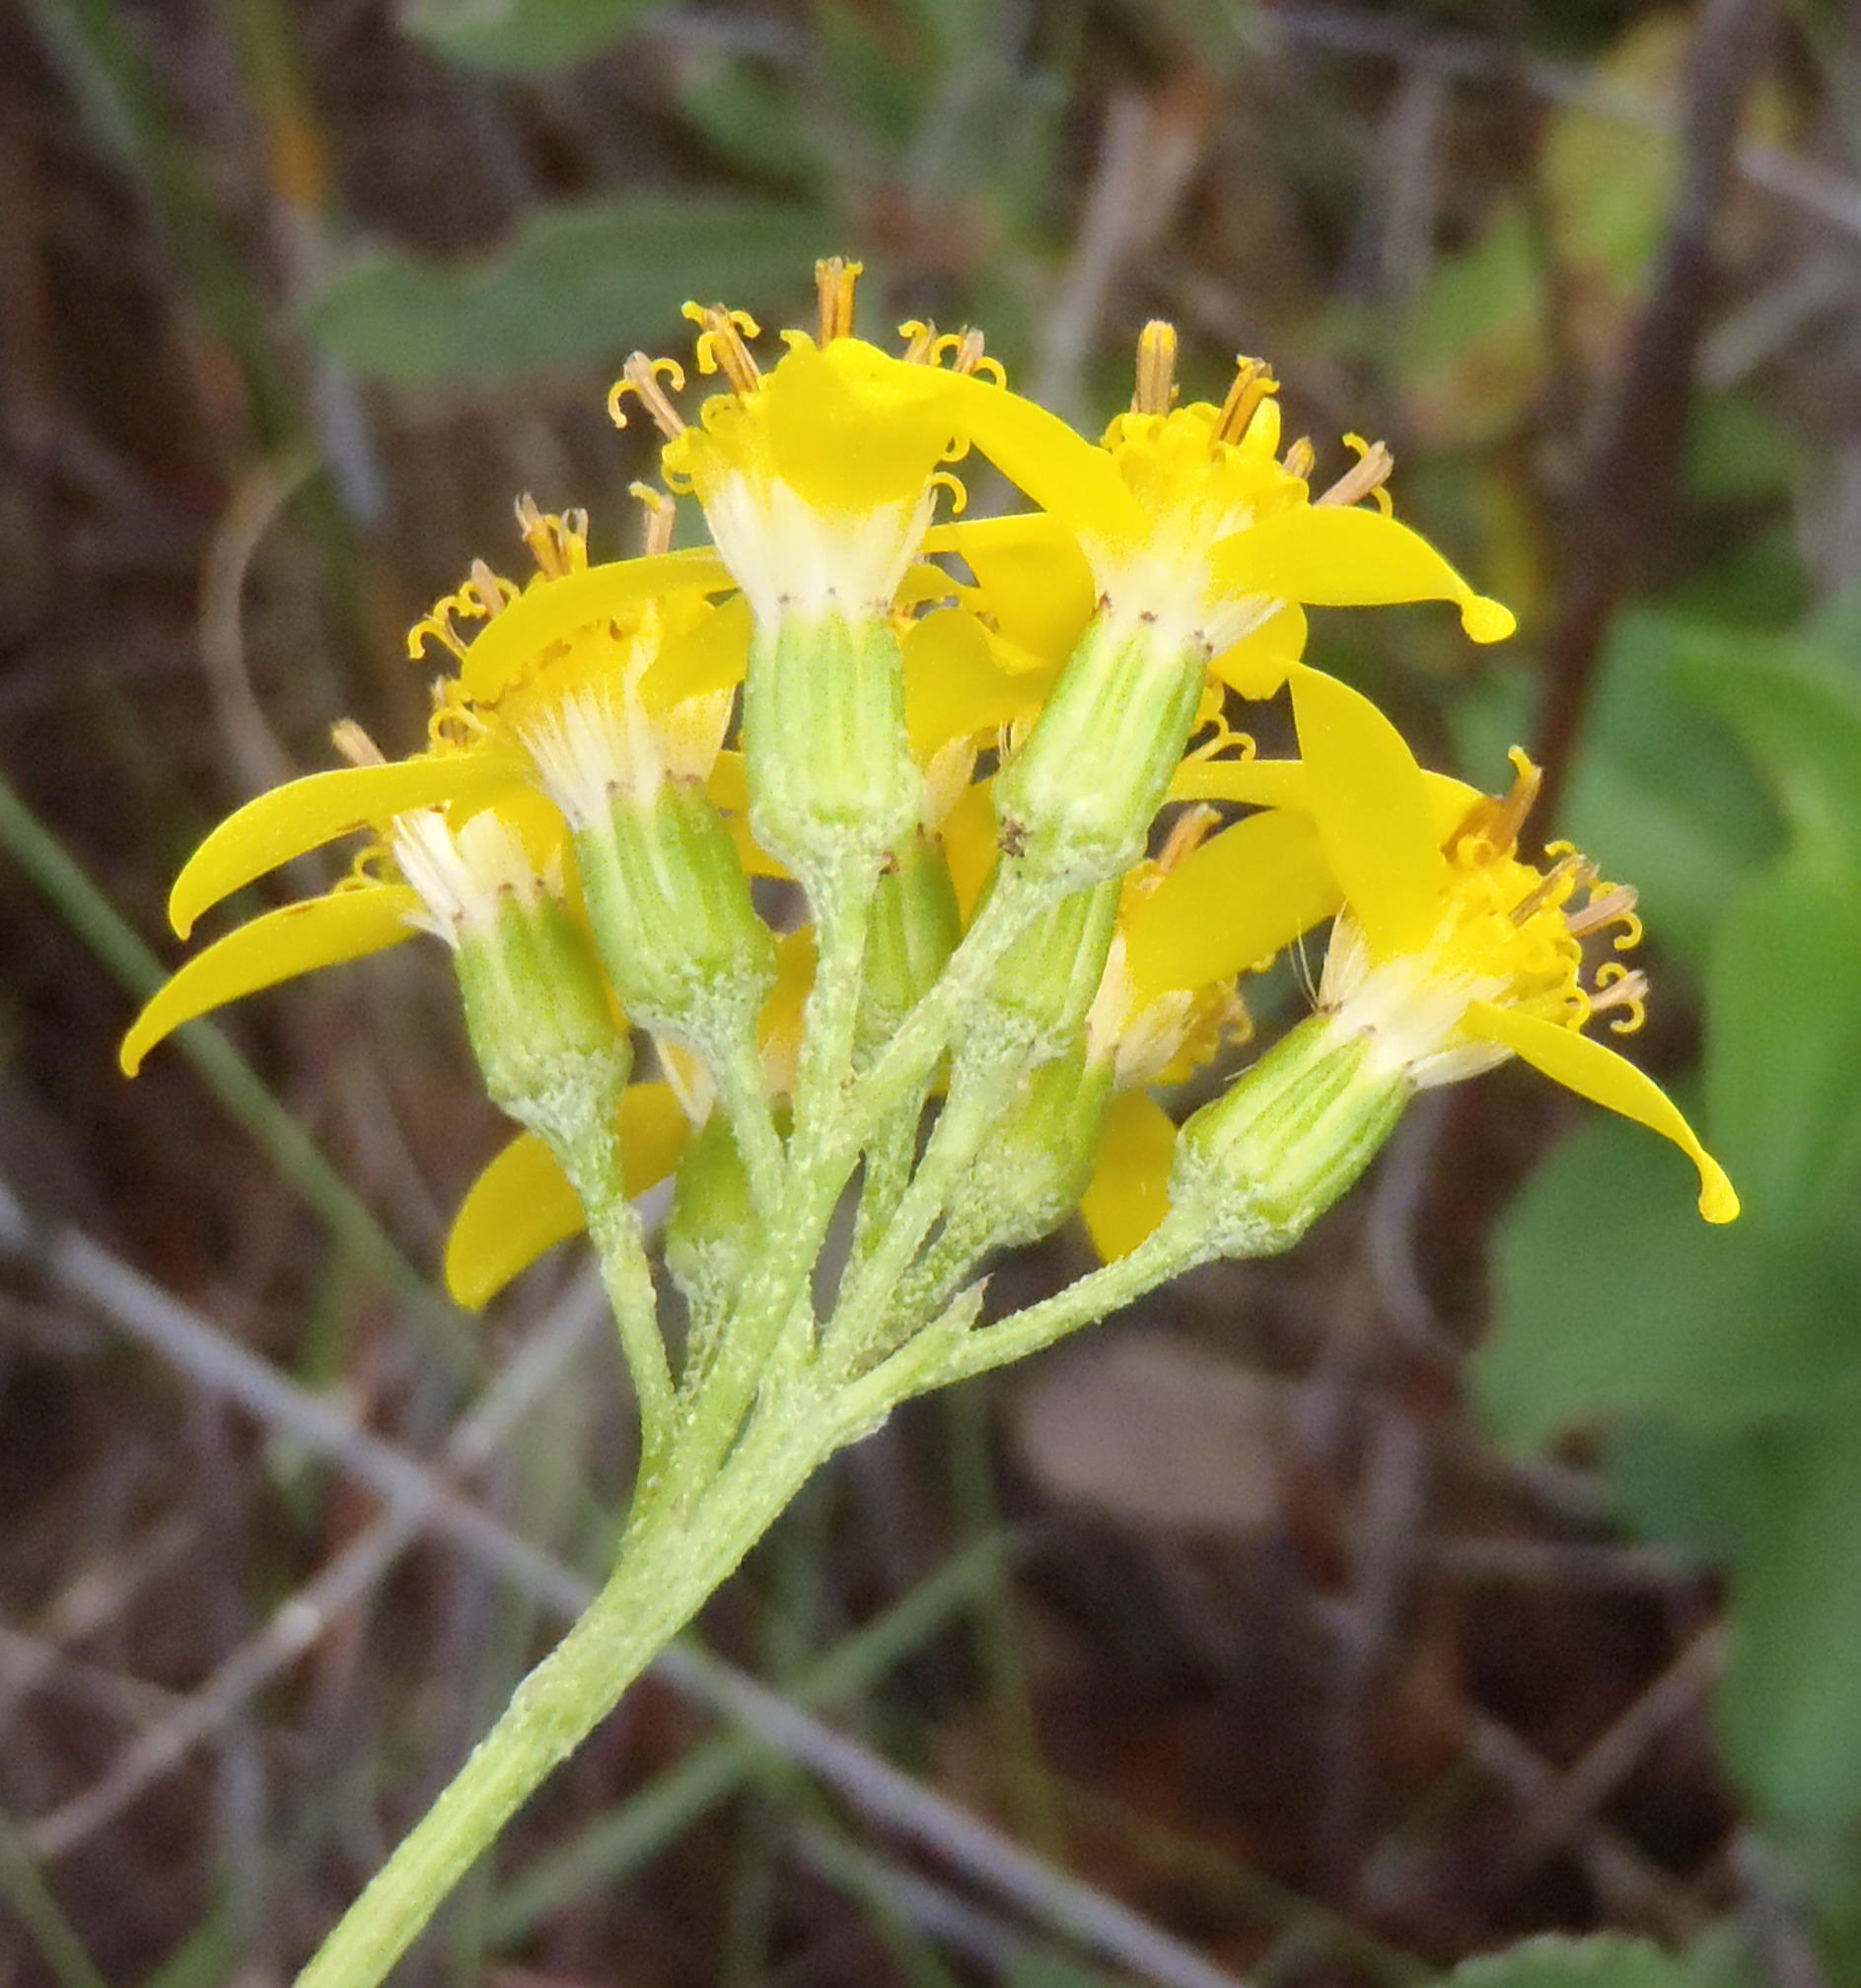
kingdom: Plantae
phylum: Tracheophyta
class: Magnoliopsida
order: Asterales
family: Asteraceae
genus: Senecio
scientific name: Senecio crenatus
